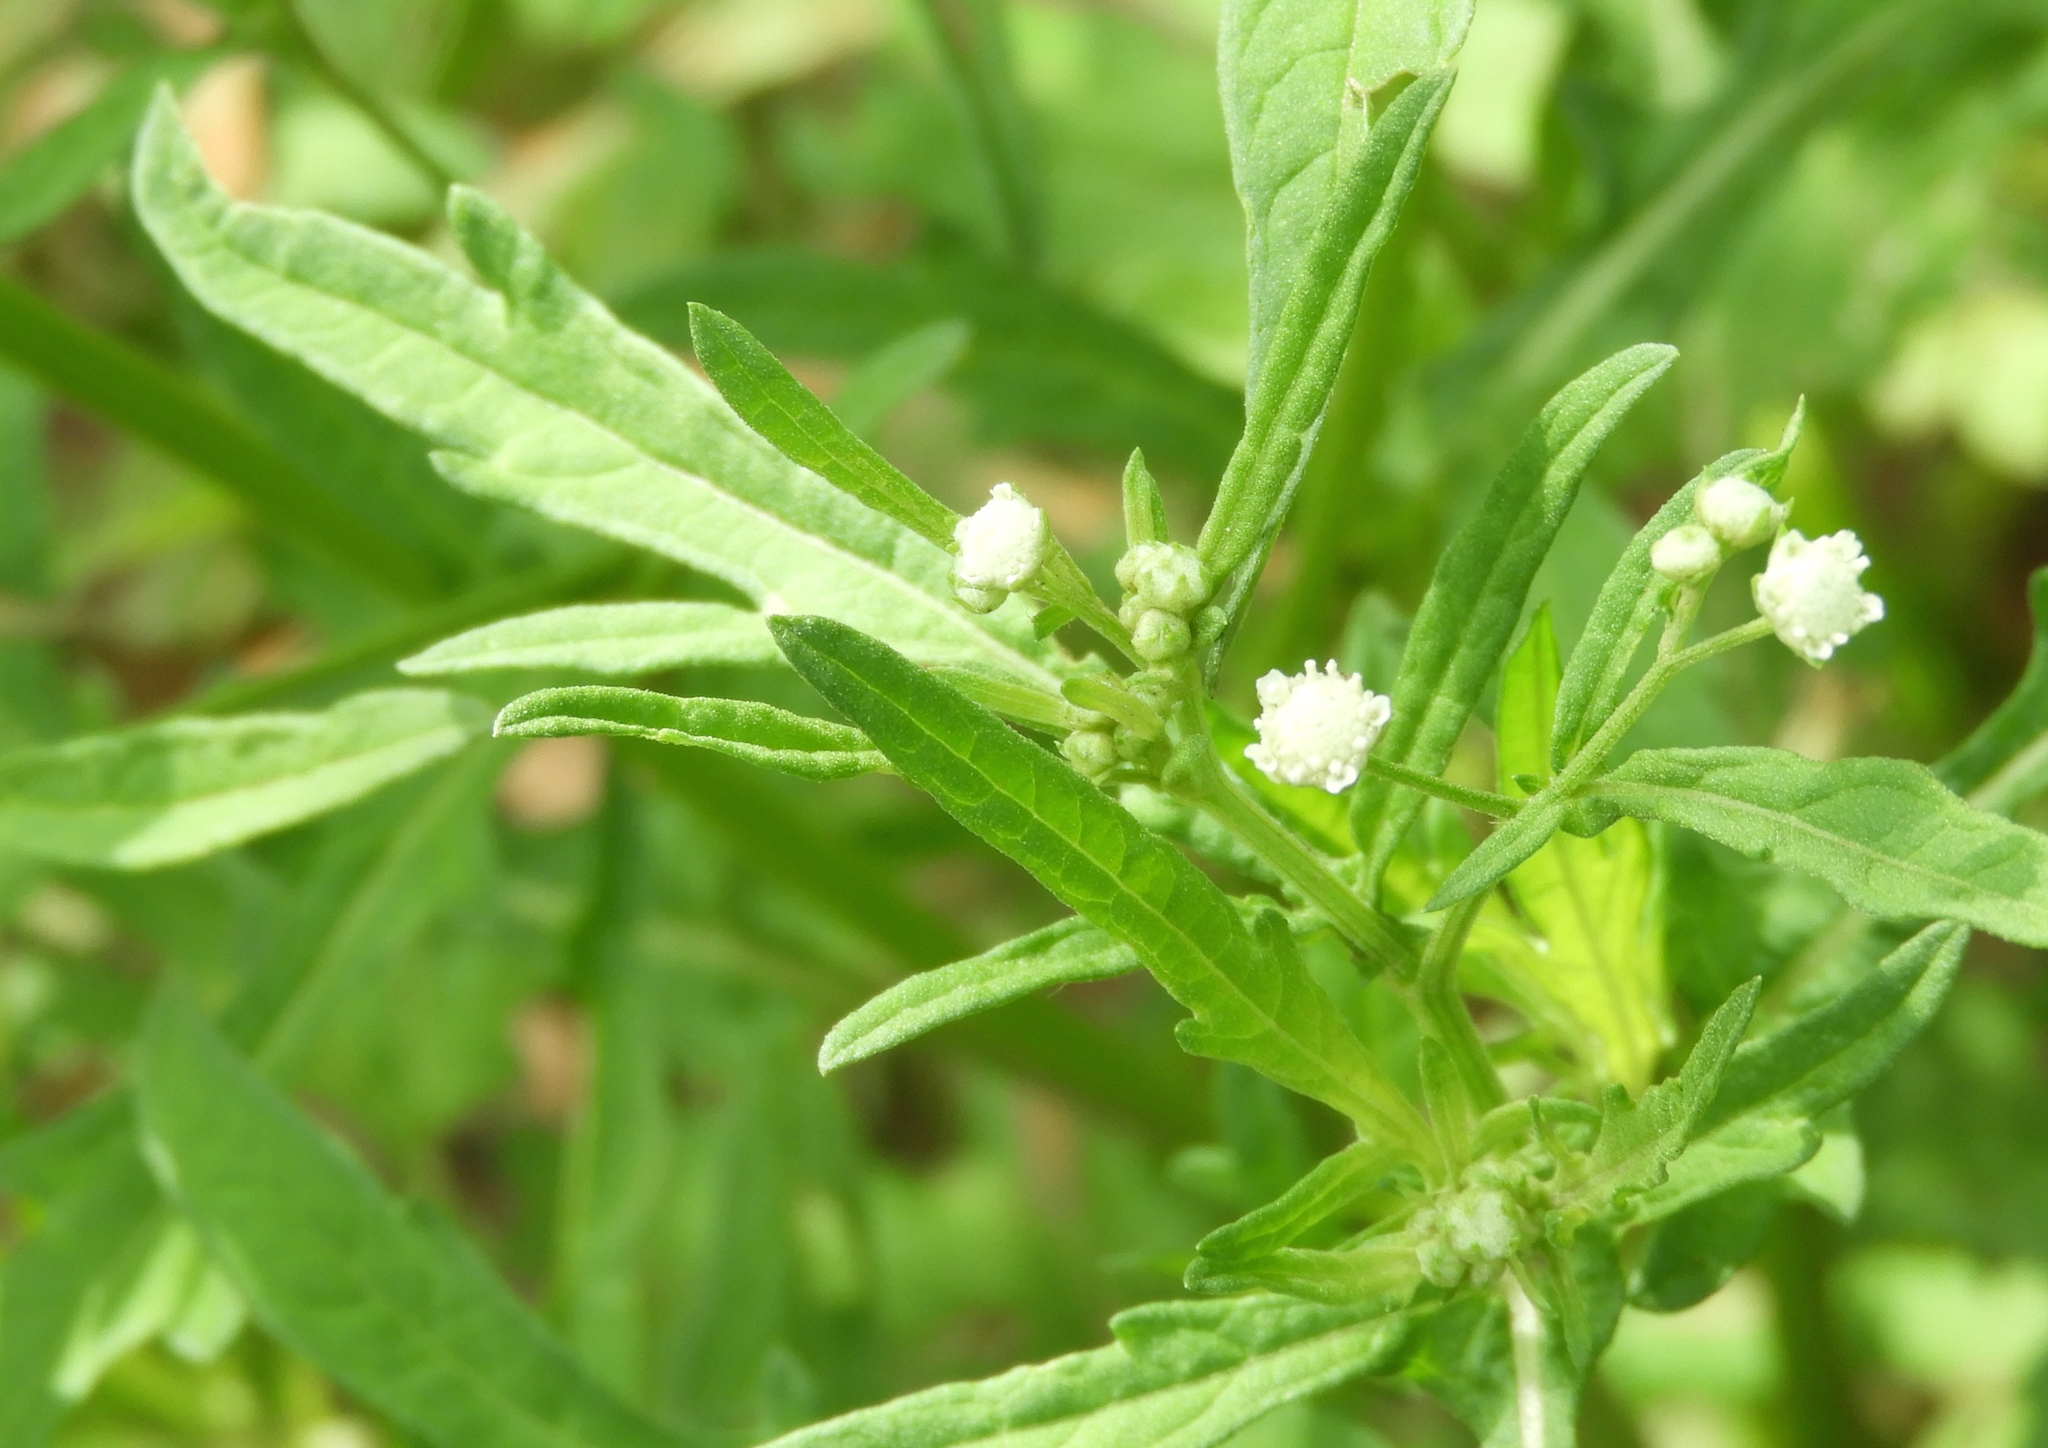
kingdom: Plantae
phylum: Tracheophyta
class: Magnoliopsida
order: Asterales
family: Asteraceae
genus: Parthenium
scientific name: Parthenium hysterophorus
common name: Santa maria feverfew
